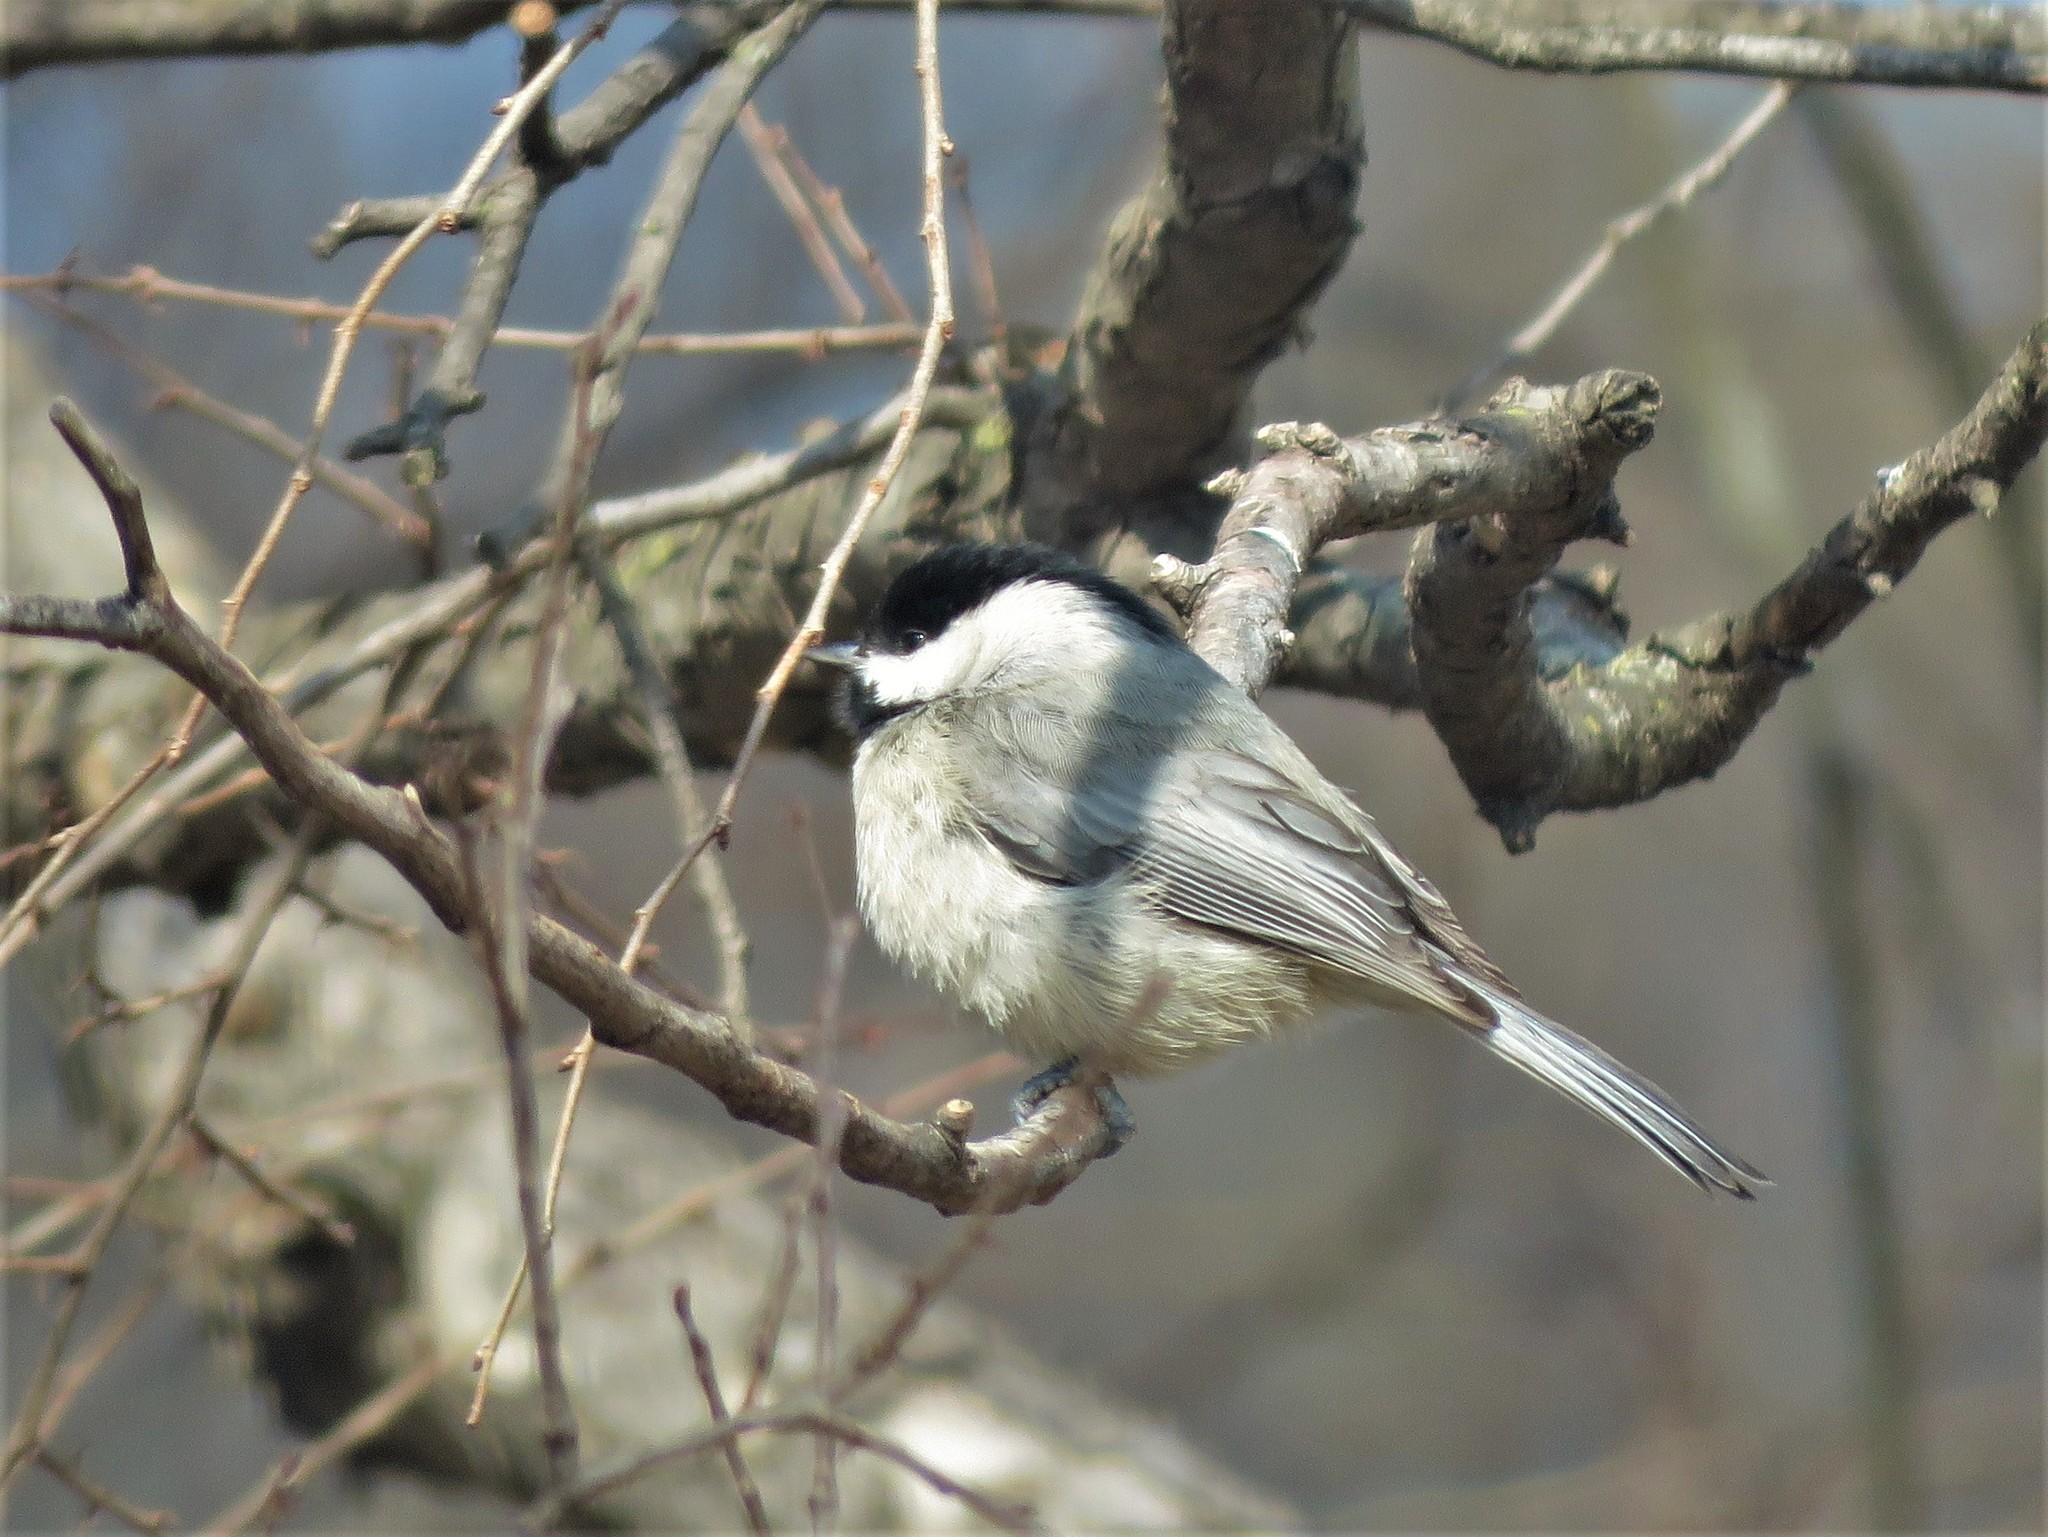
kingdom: Animalia
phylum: Chordata
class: Aves
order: Passeriformes
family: Paridae
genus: Poecile
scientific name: Poecile carolinensis
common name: Carolina chickadee
